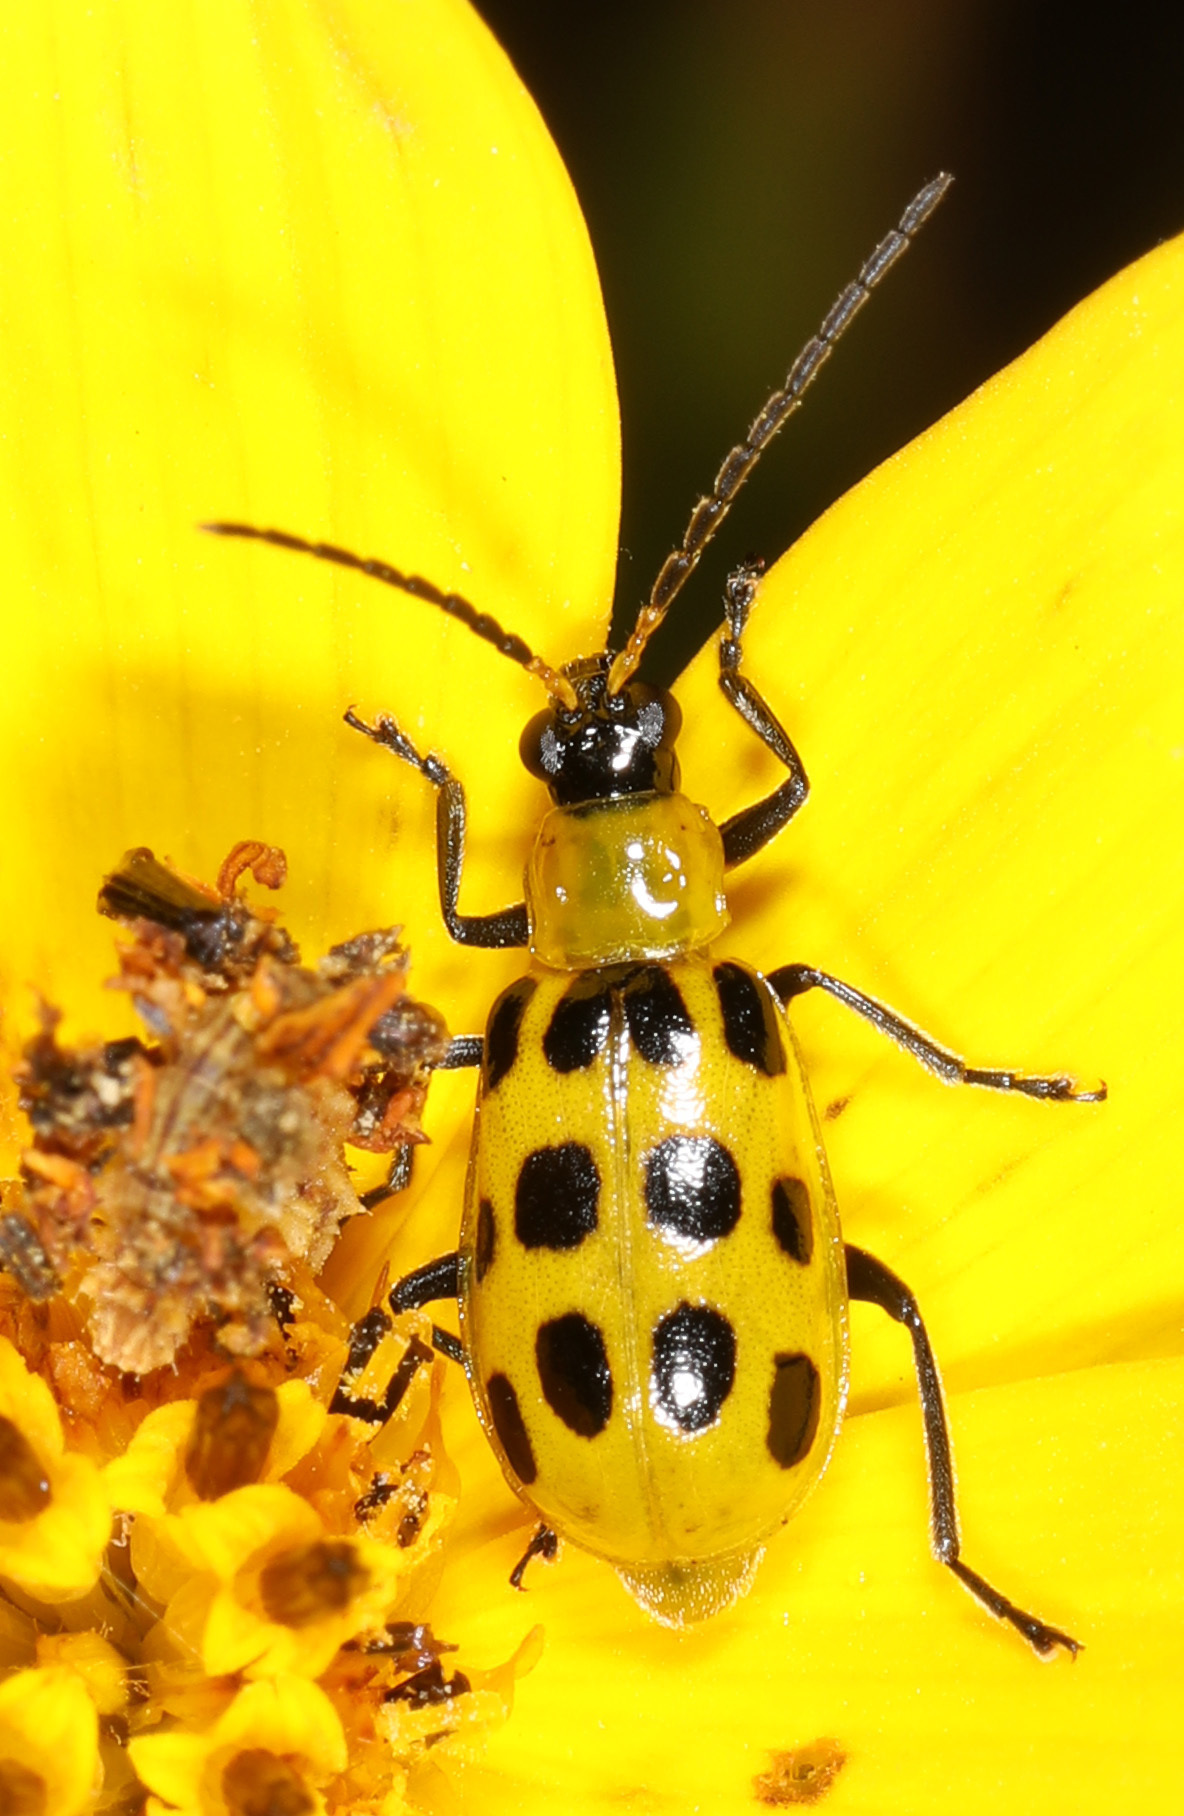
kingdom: Animalia
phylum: Arthropoda
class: Insecta
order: Coleoptera
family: Chrysomelidae
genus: Diabrotica
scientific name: Diabrotica undecimpunctata
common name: Spotted cucumber beetle
